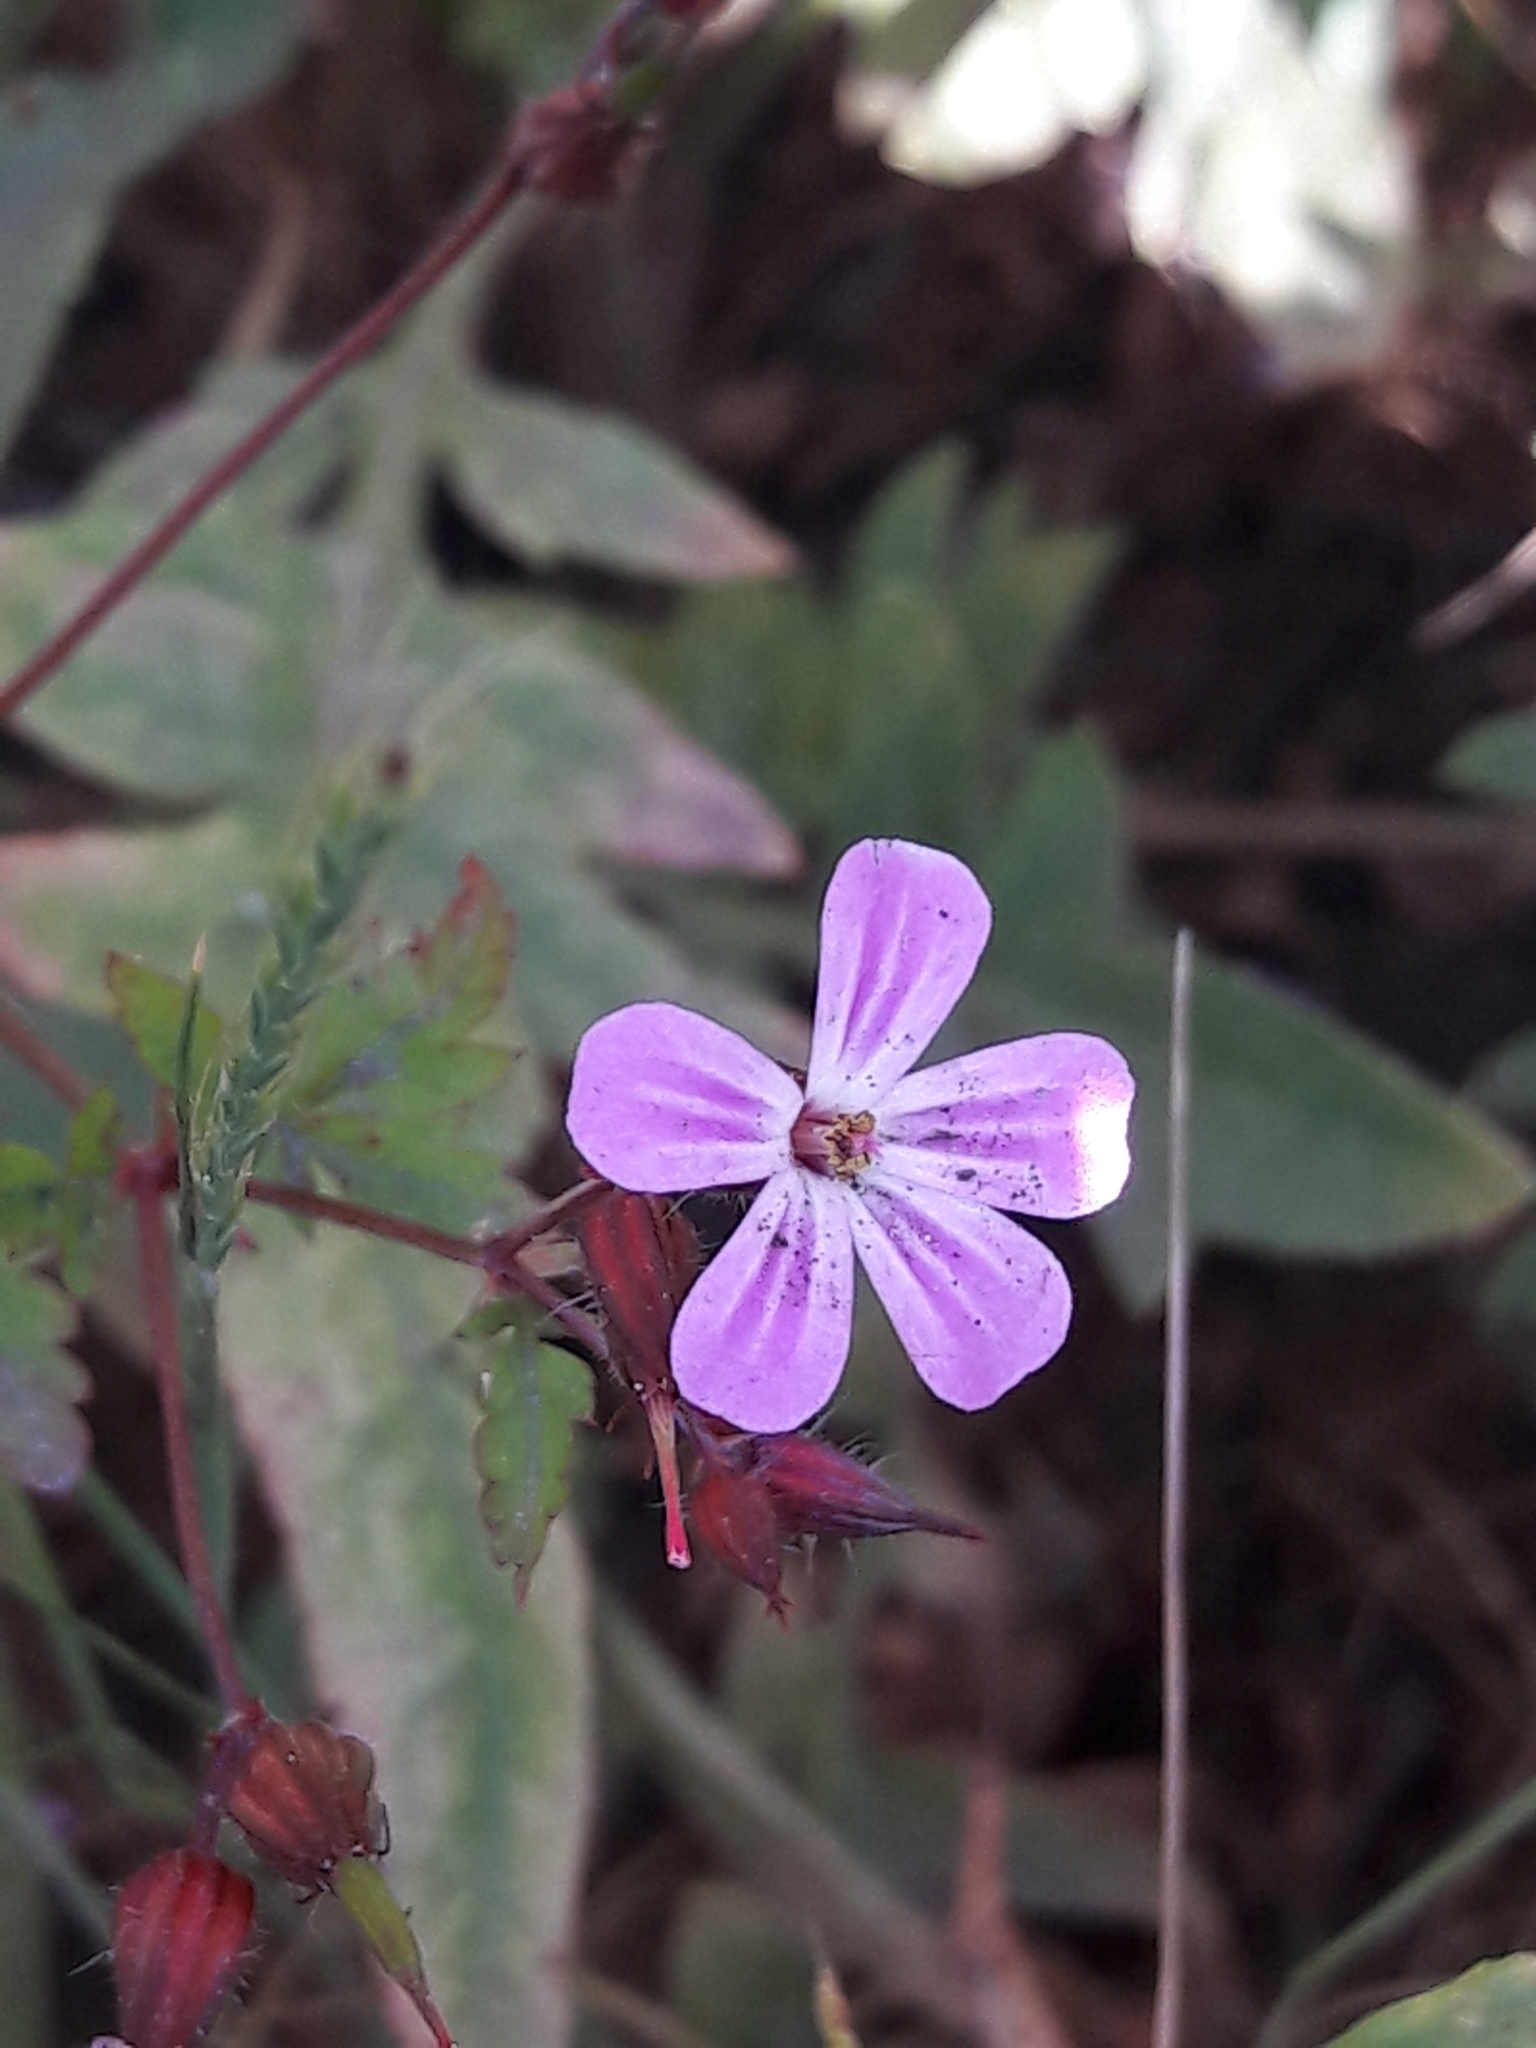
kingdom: Plantae
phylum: Tracheophyta
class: Magnoliopsida
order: Geraniales
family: Geraniaceae
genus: Geranium
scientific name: Geranium robertianum
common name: Herb-robert
